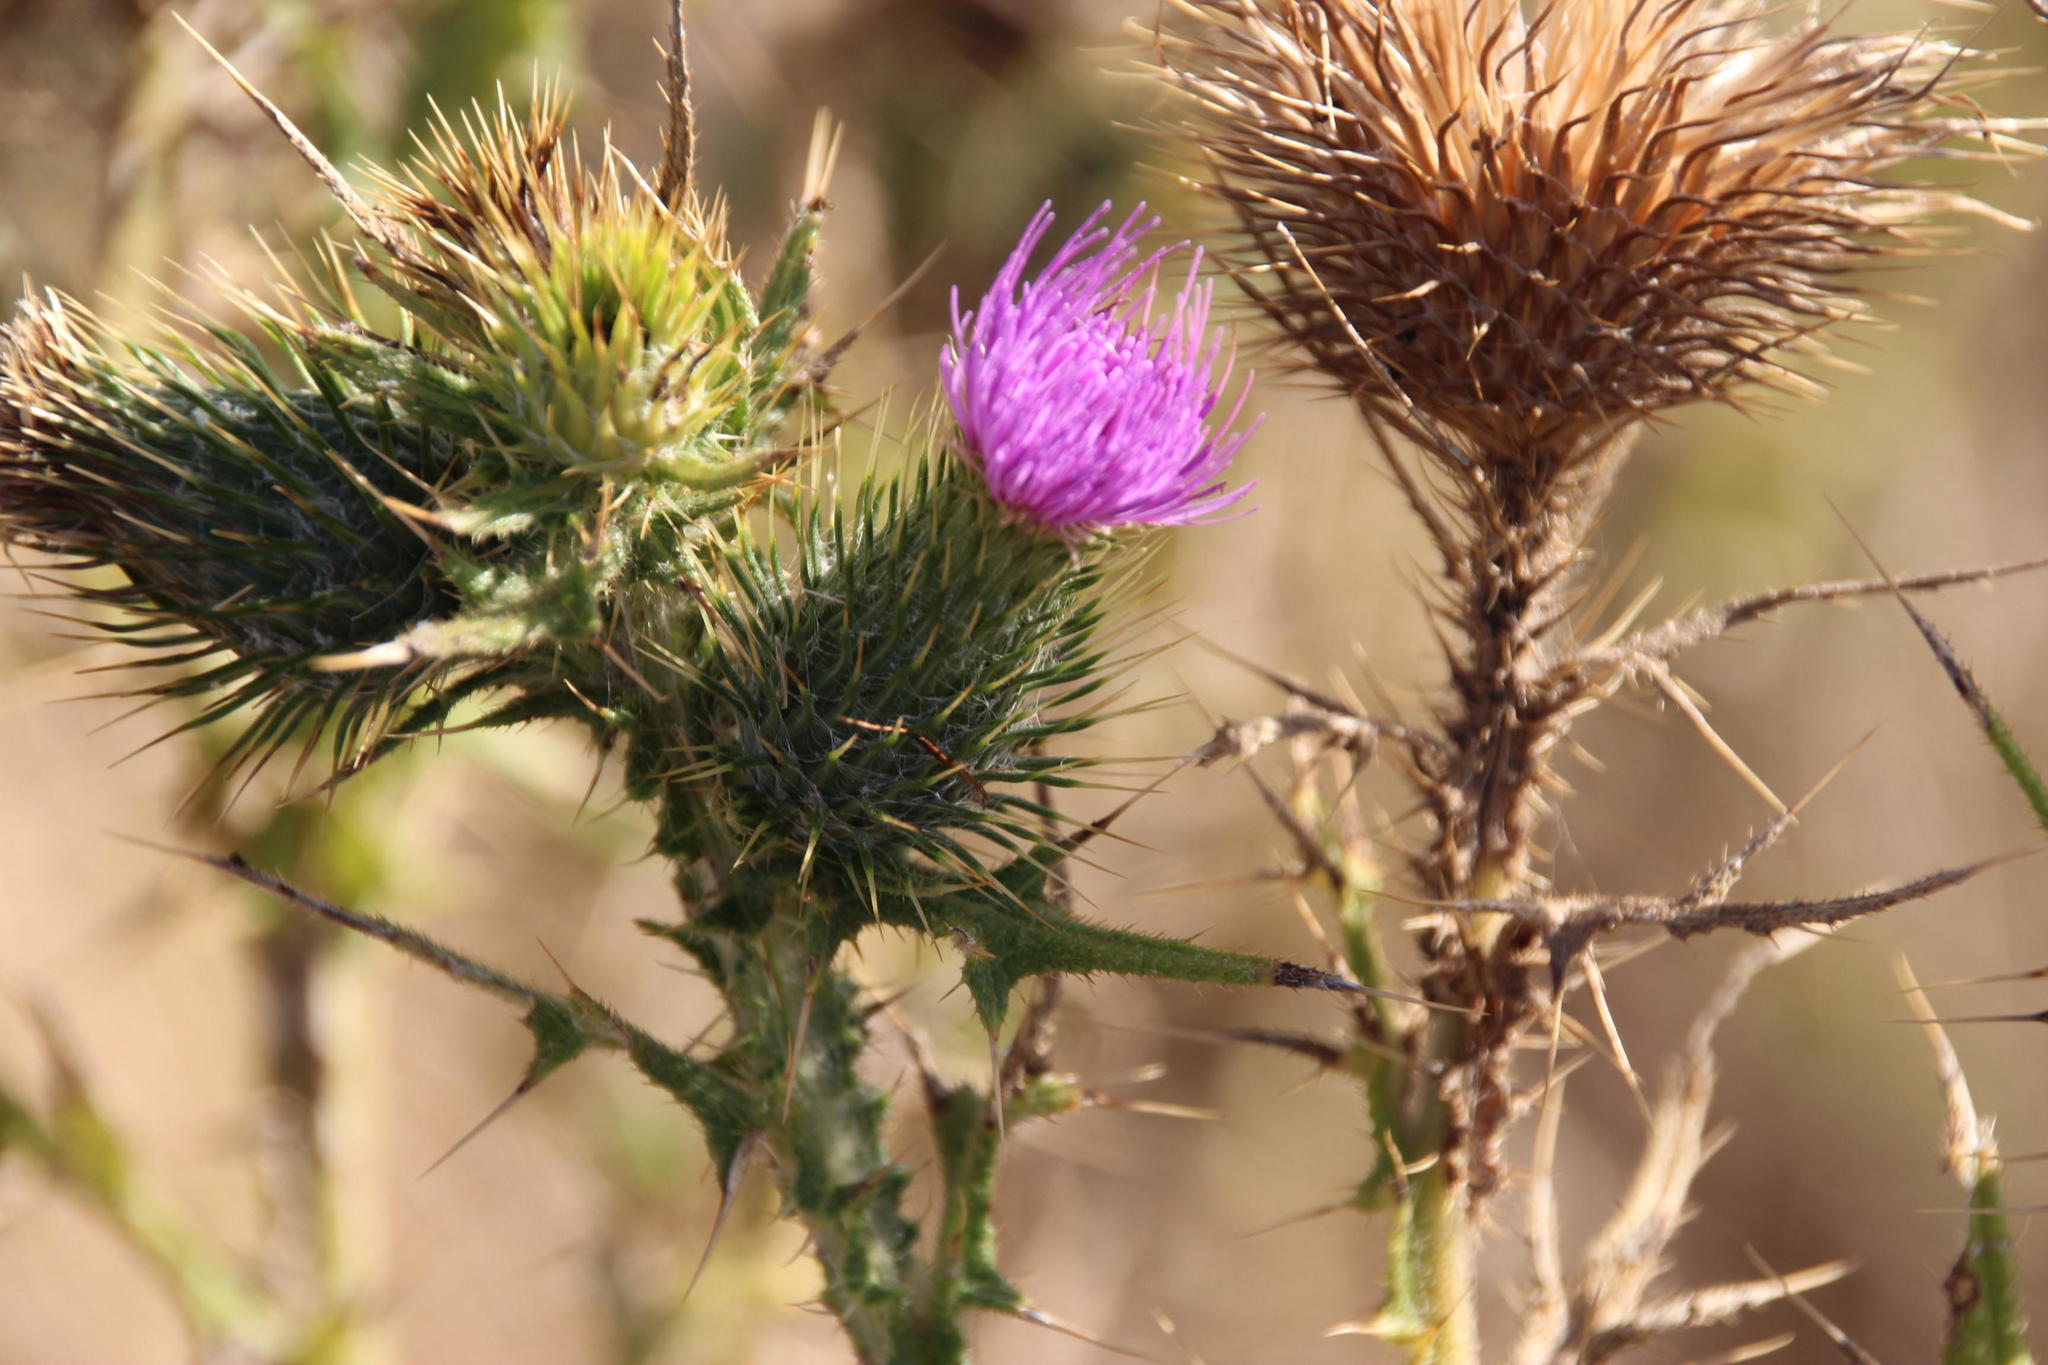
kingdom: Plantae
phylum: Tracheophyta
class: Magnoliopsida
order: Asterales
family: Asteraceae
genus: Cirsium
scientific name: Cirsium vulgare
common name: Bull thistle
